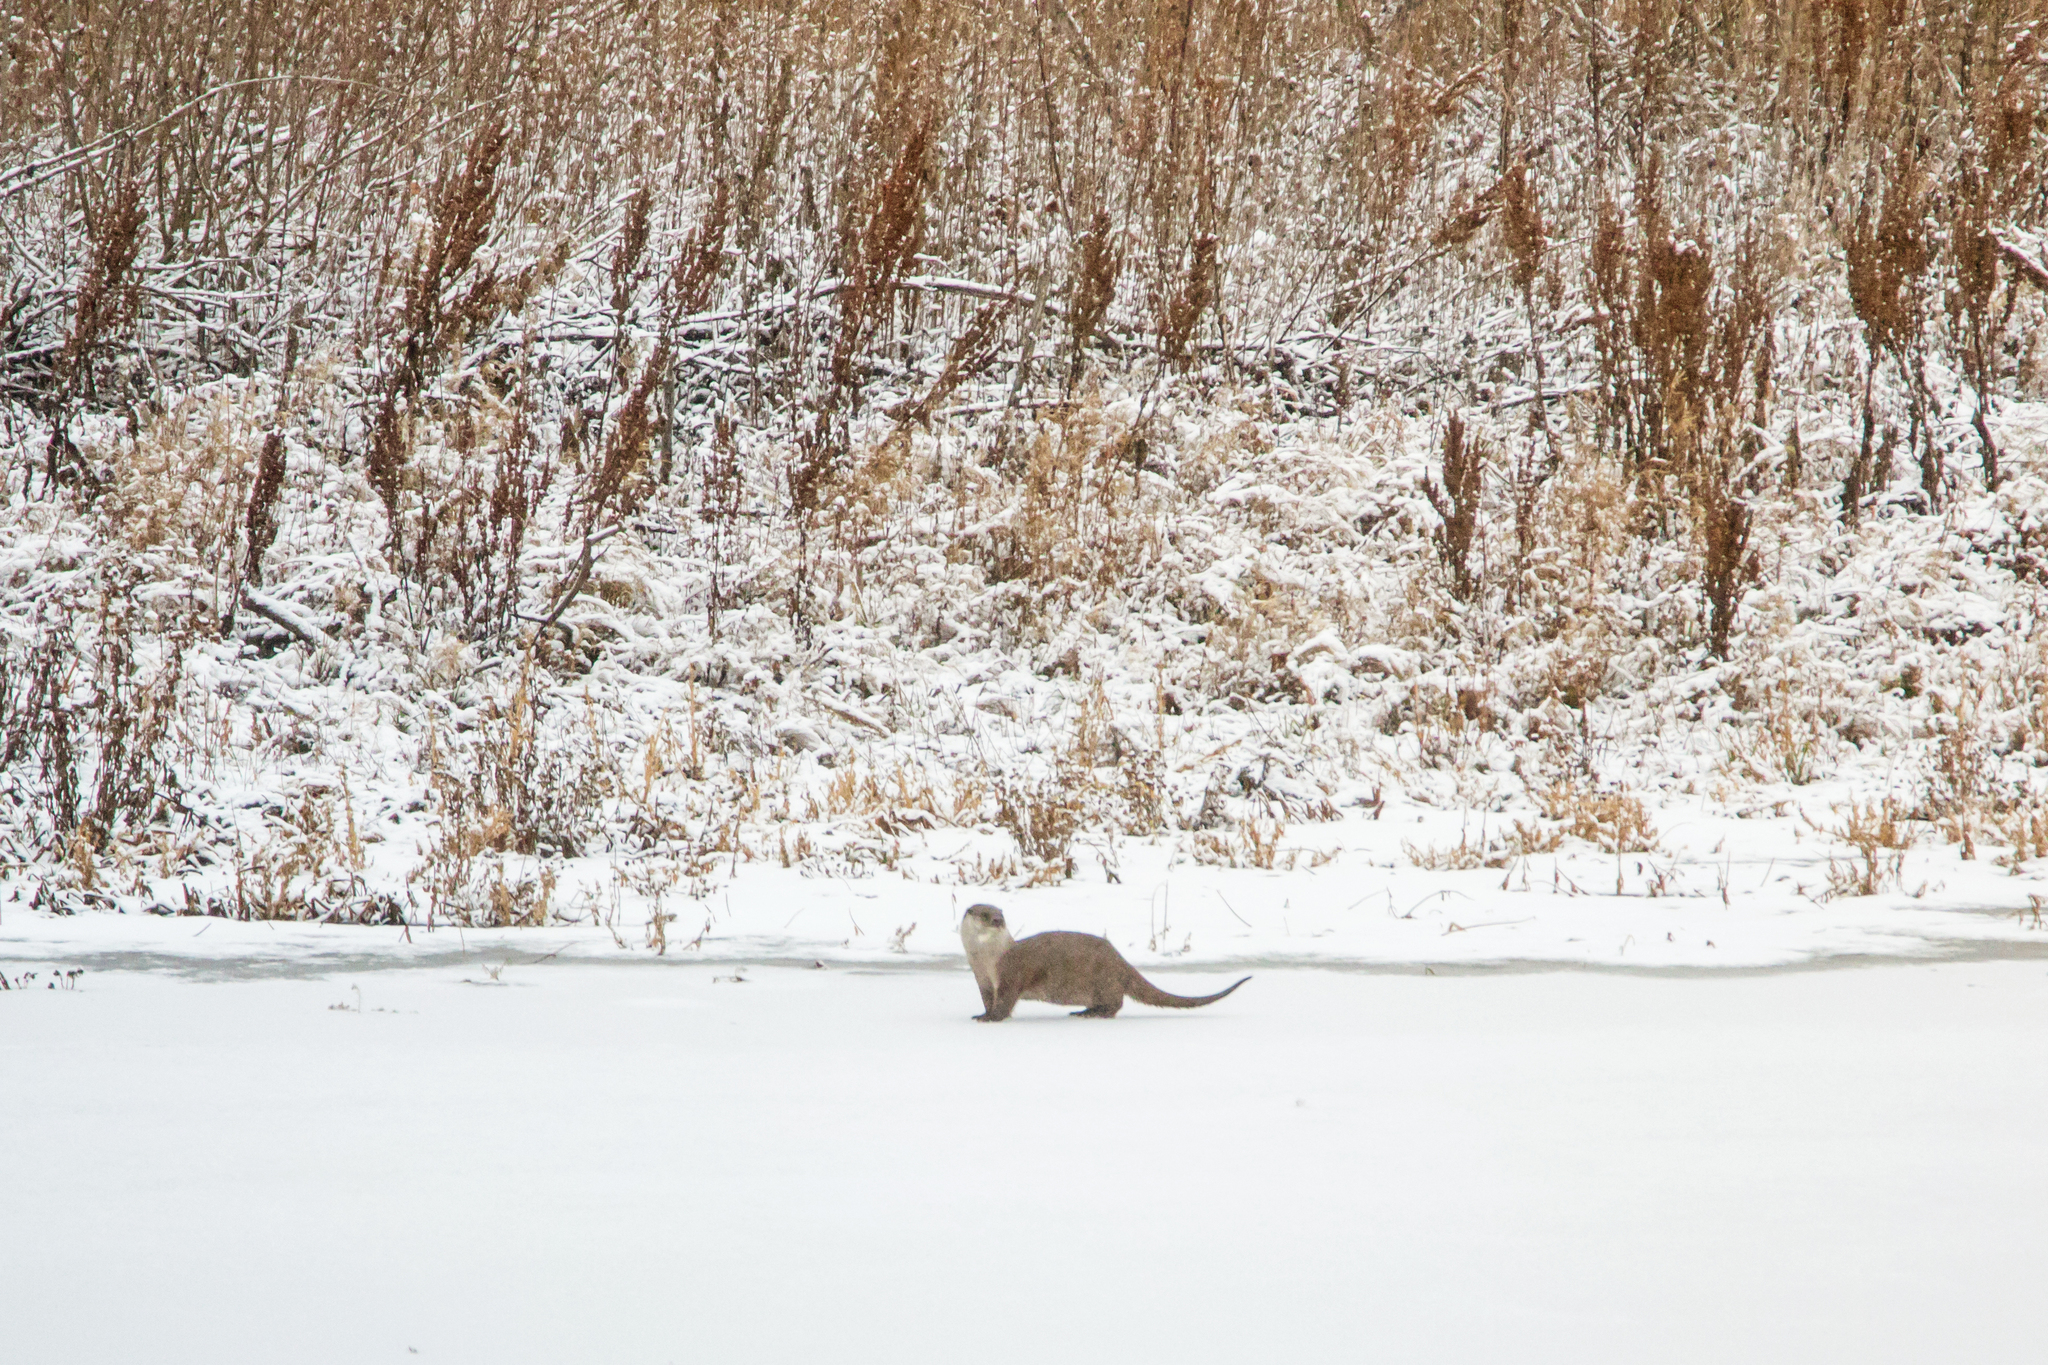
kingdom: Animalia
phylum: Chordata
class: Mammalia
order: Carnivora
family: Mustelidae
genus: Lutra
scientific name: Lutra lutra
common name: European otter
